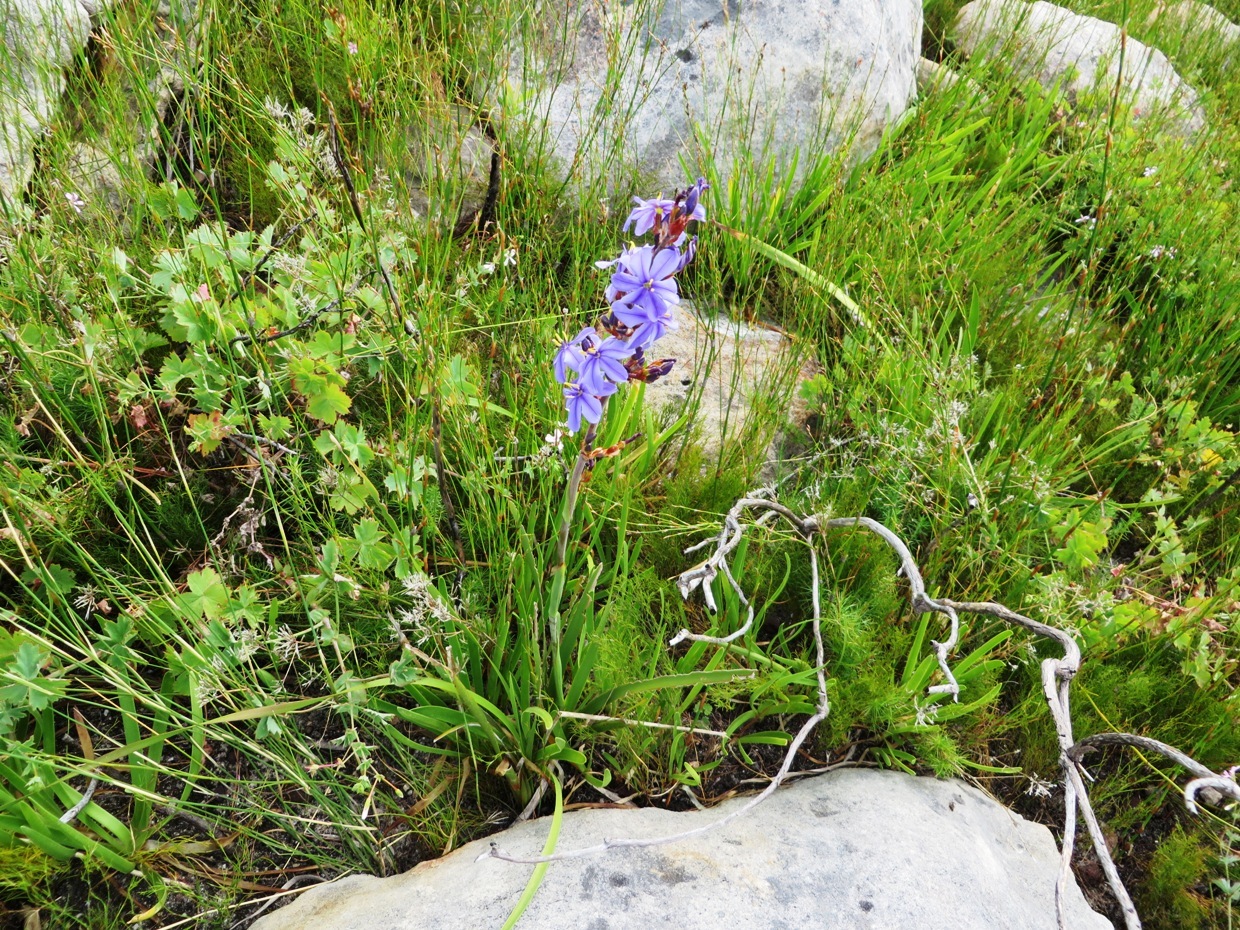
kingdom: Plantae
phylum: Tracheophyta
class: Liliopsida
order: Asparagales
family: Iridaceae
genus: Aristea
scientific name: Aristea capitata
